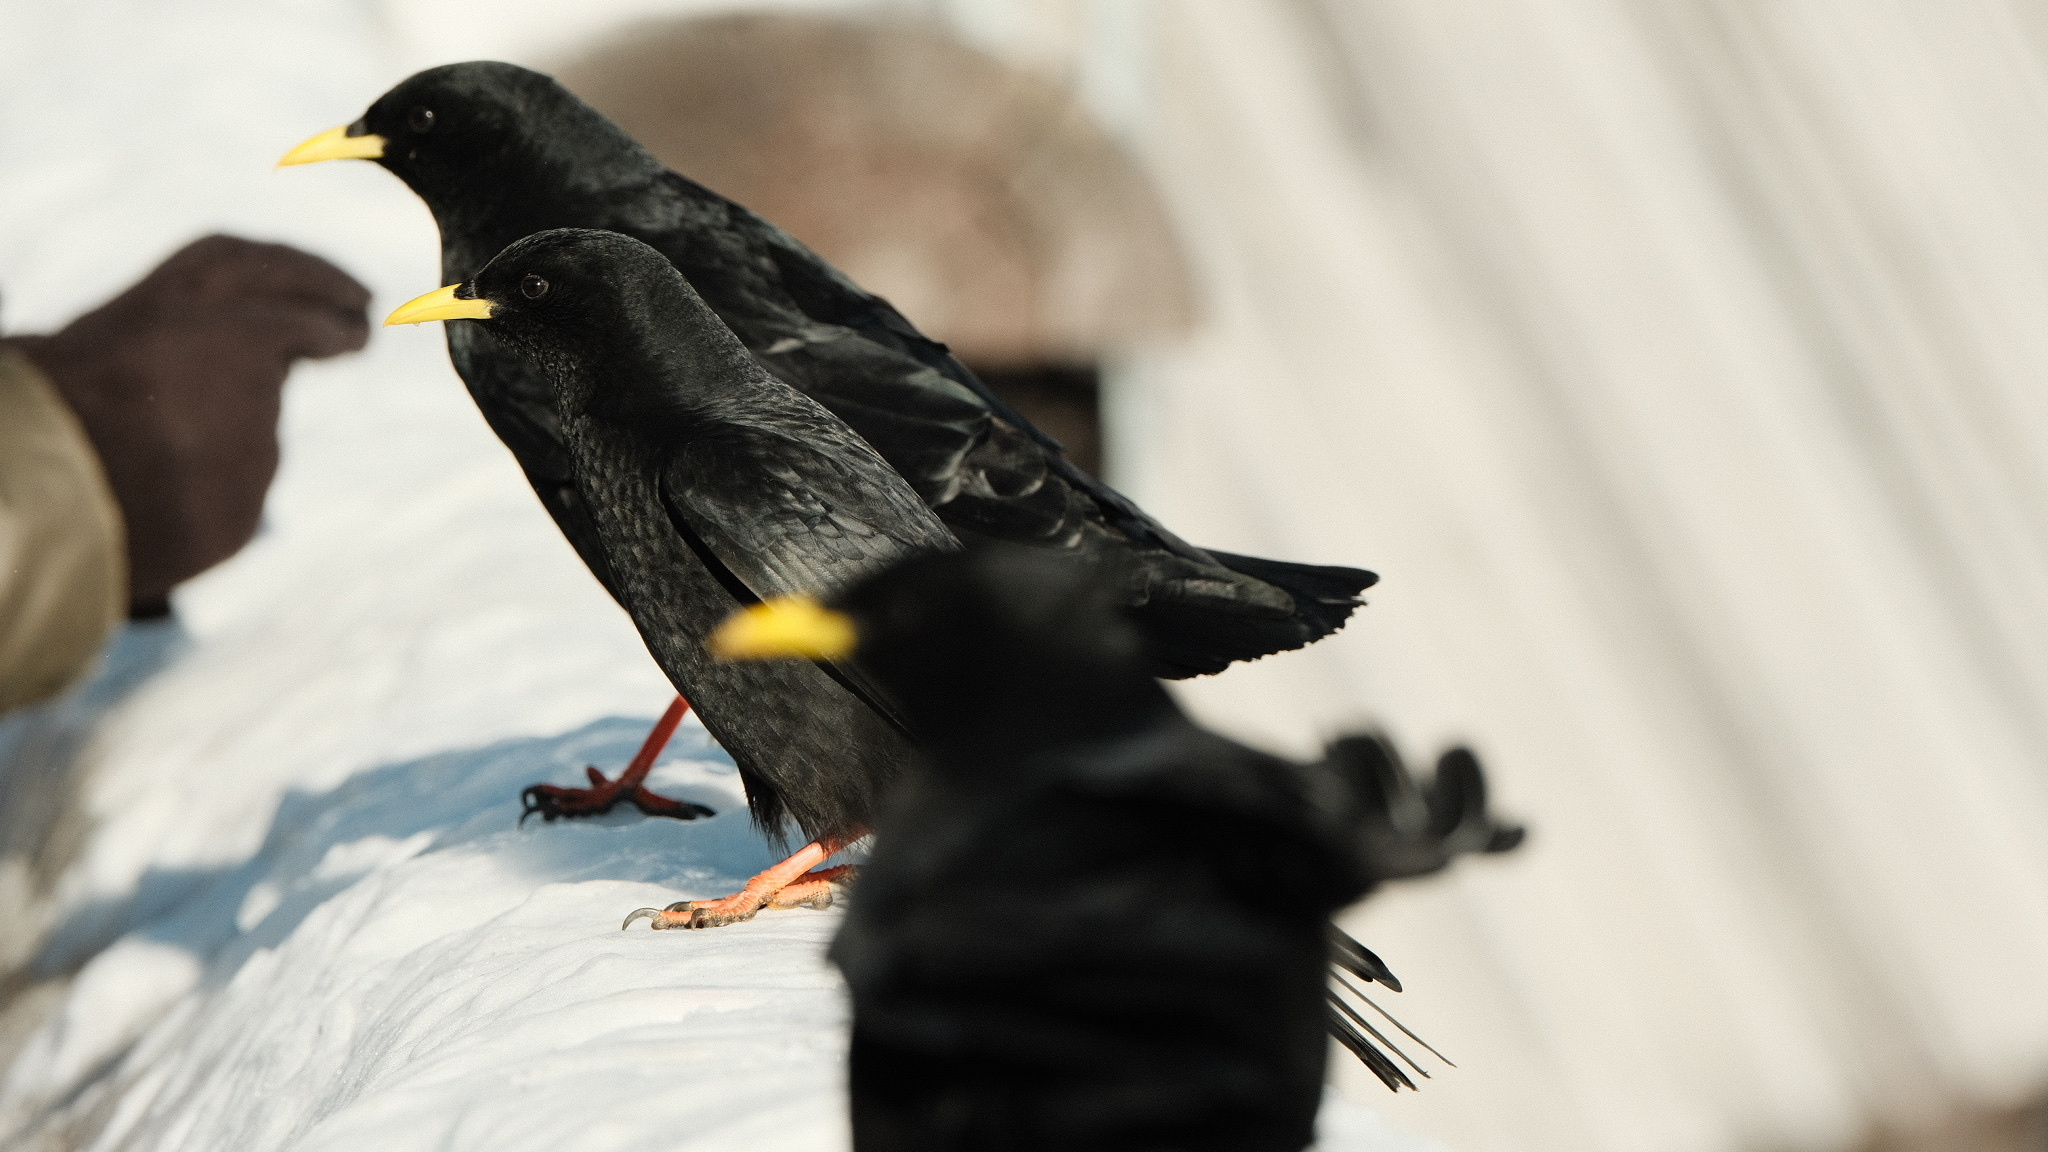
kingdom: Animalia
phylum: Chordata
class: Aves
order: Passeriformes
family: Corvidae
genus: Pyrrhocorax
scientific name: Pyrrhocorax graculus
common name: Alpine chough
